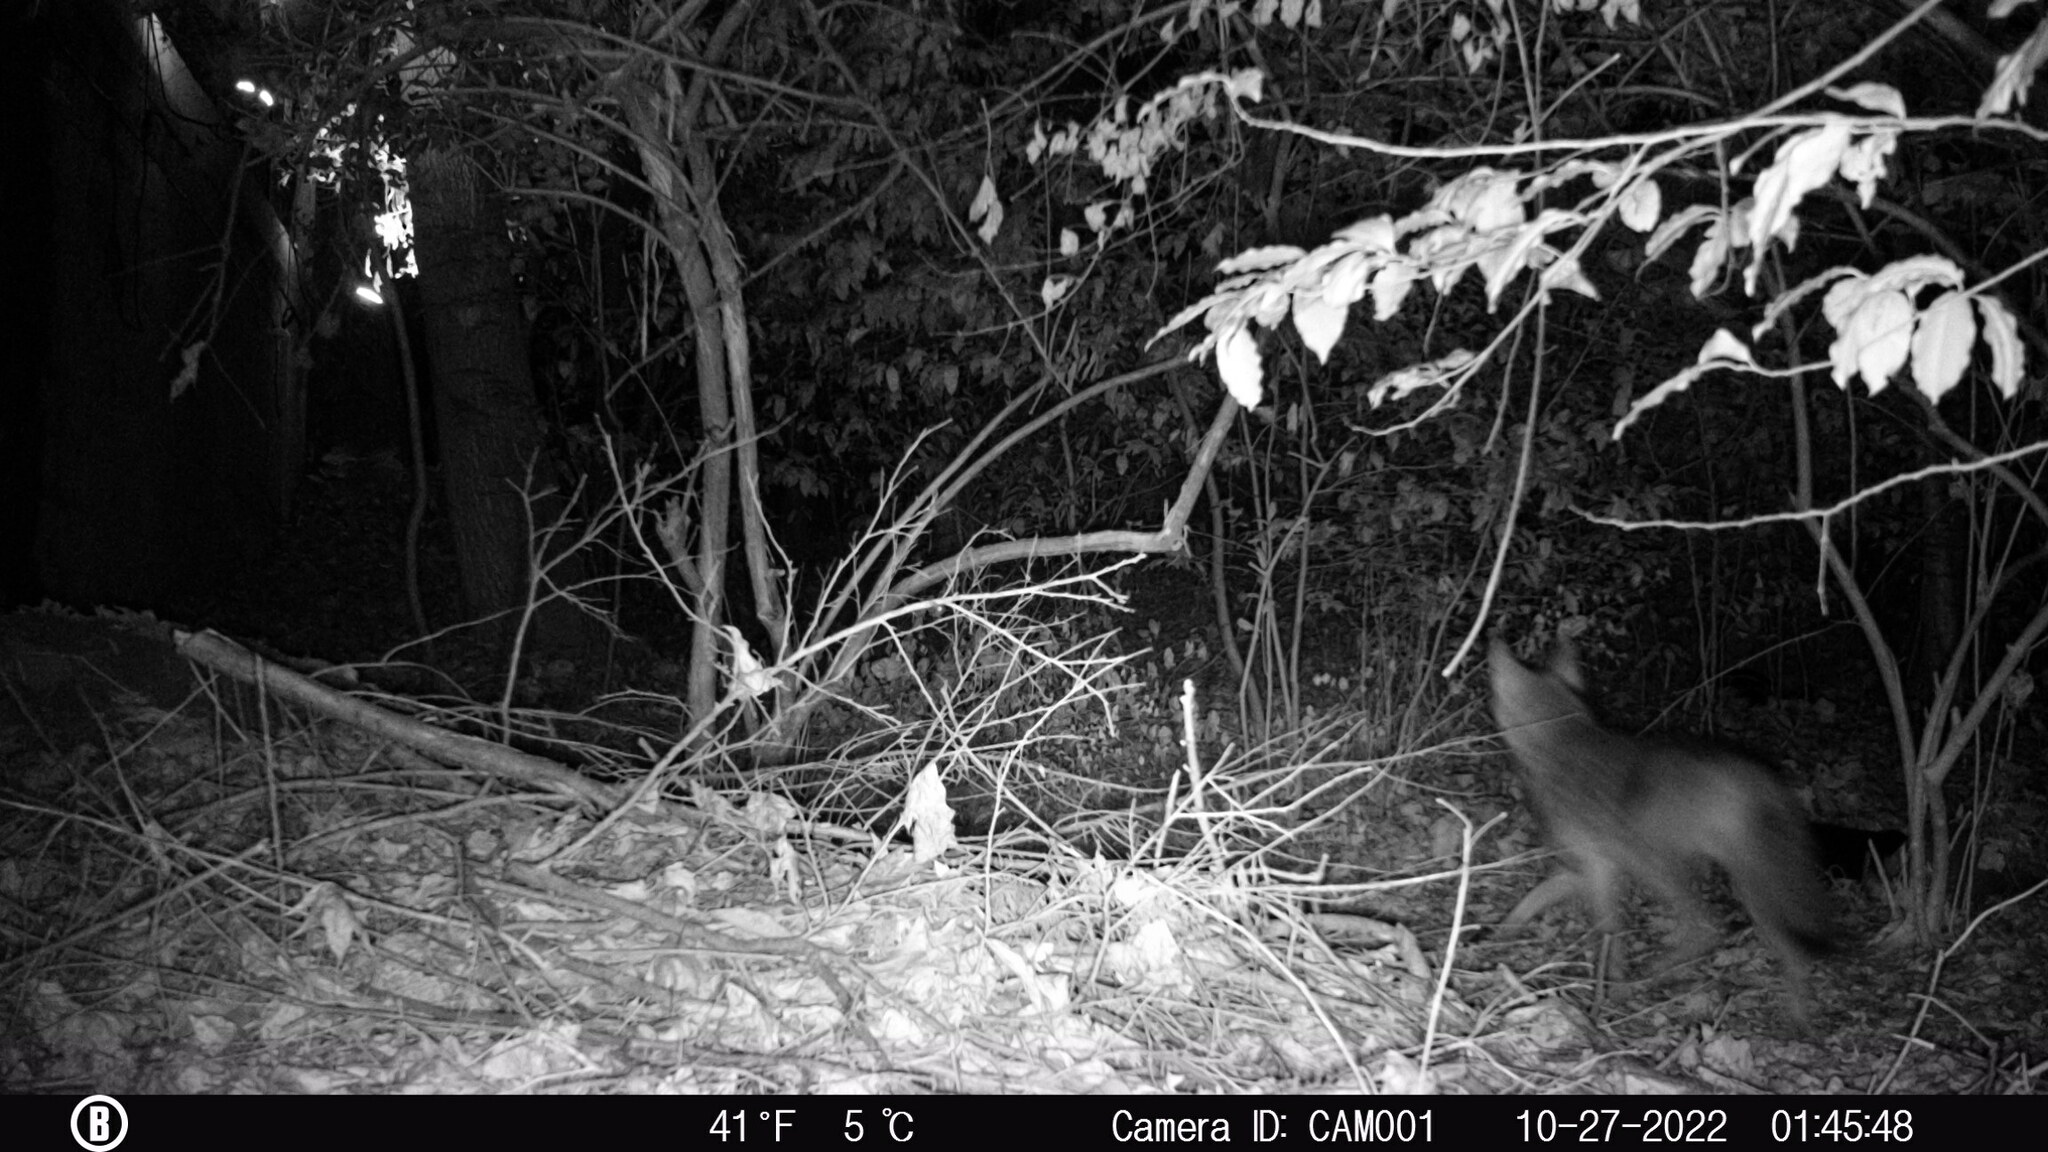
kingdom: Animalia
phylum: Chordata
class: Mammalia
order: Carnivora
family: Canidae
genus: Canis
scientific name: Canis latrans
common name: Coyote
